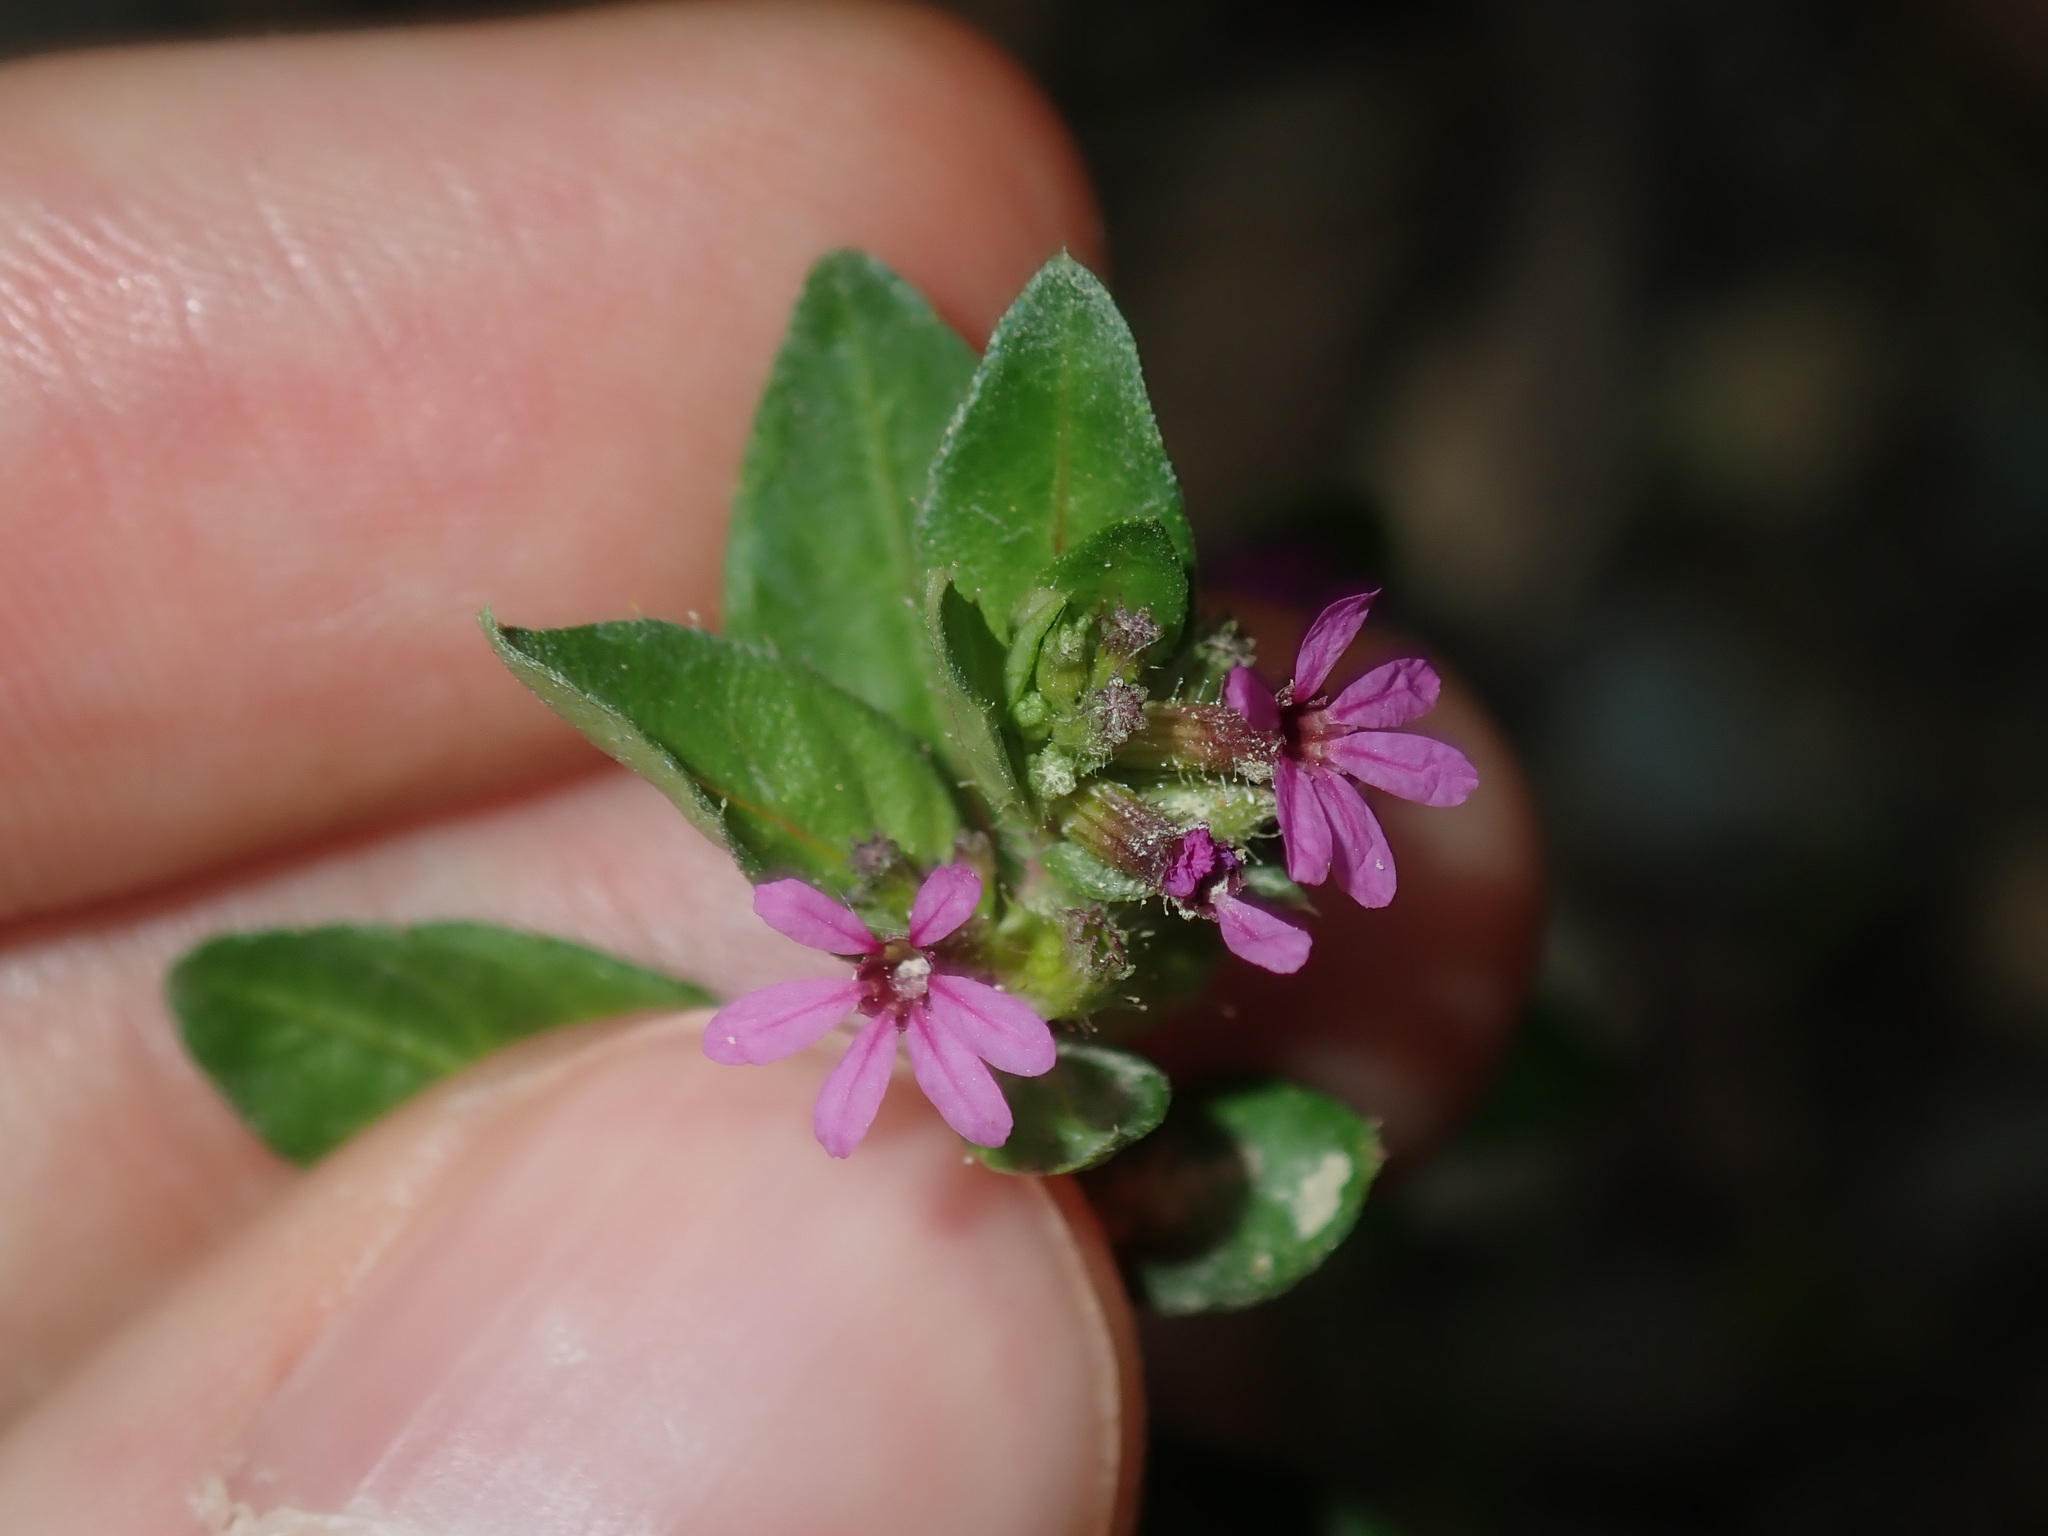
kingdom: Plantae
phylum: Tracheophyta
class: Magnoliopsida
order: Myrtales
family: Lythraceae
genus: Cuphea
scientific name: Cuphea carthagenensis
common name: Colombian waxweed
